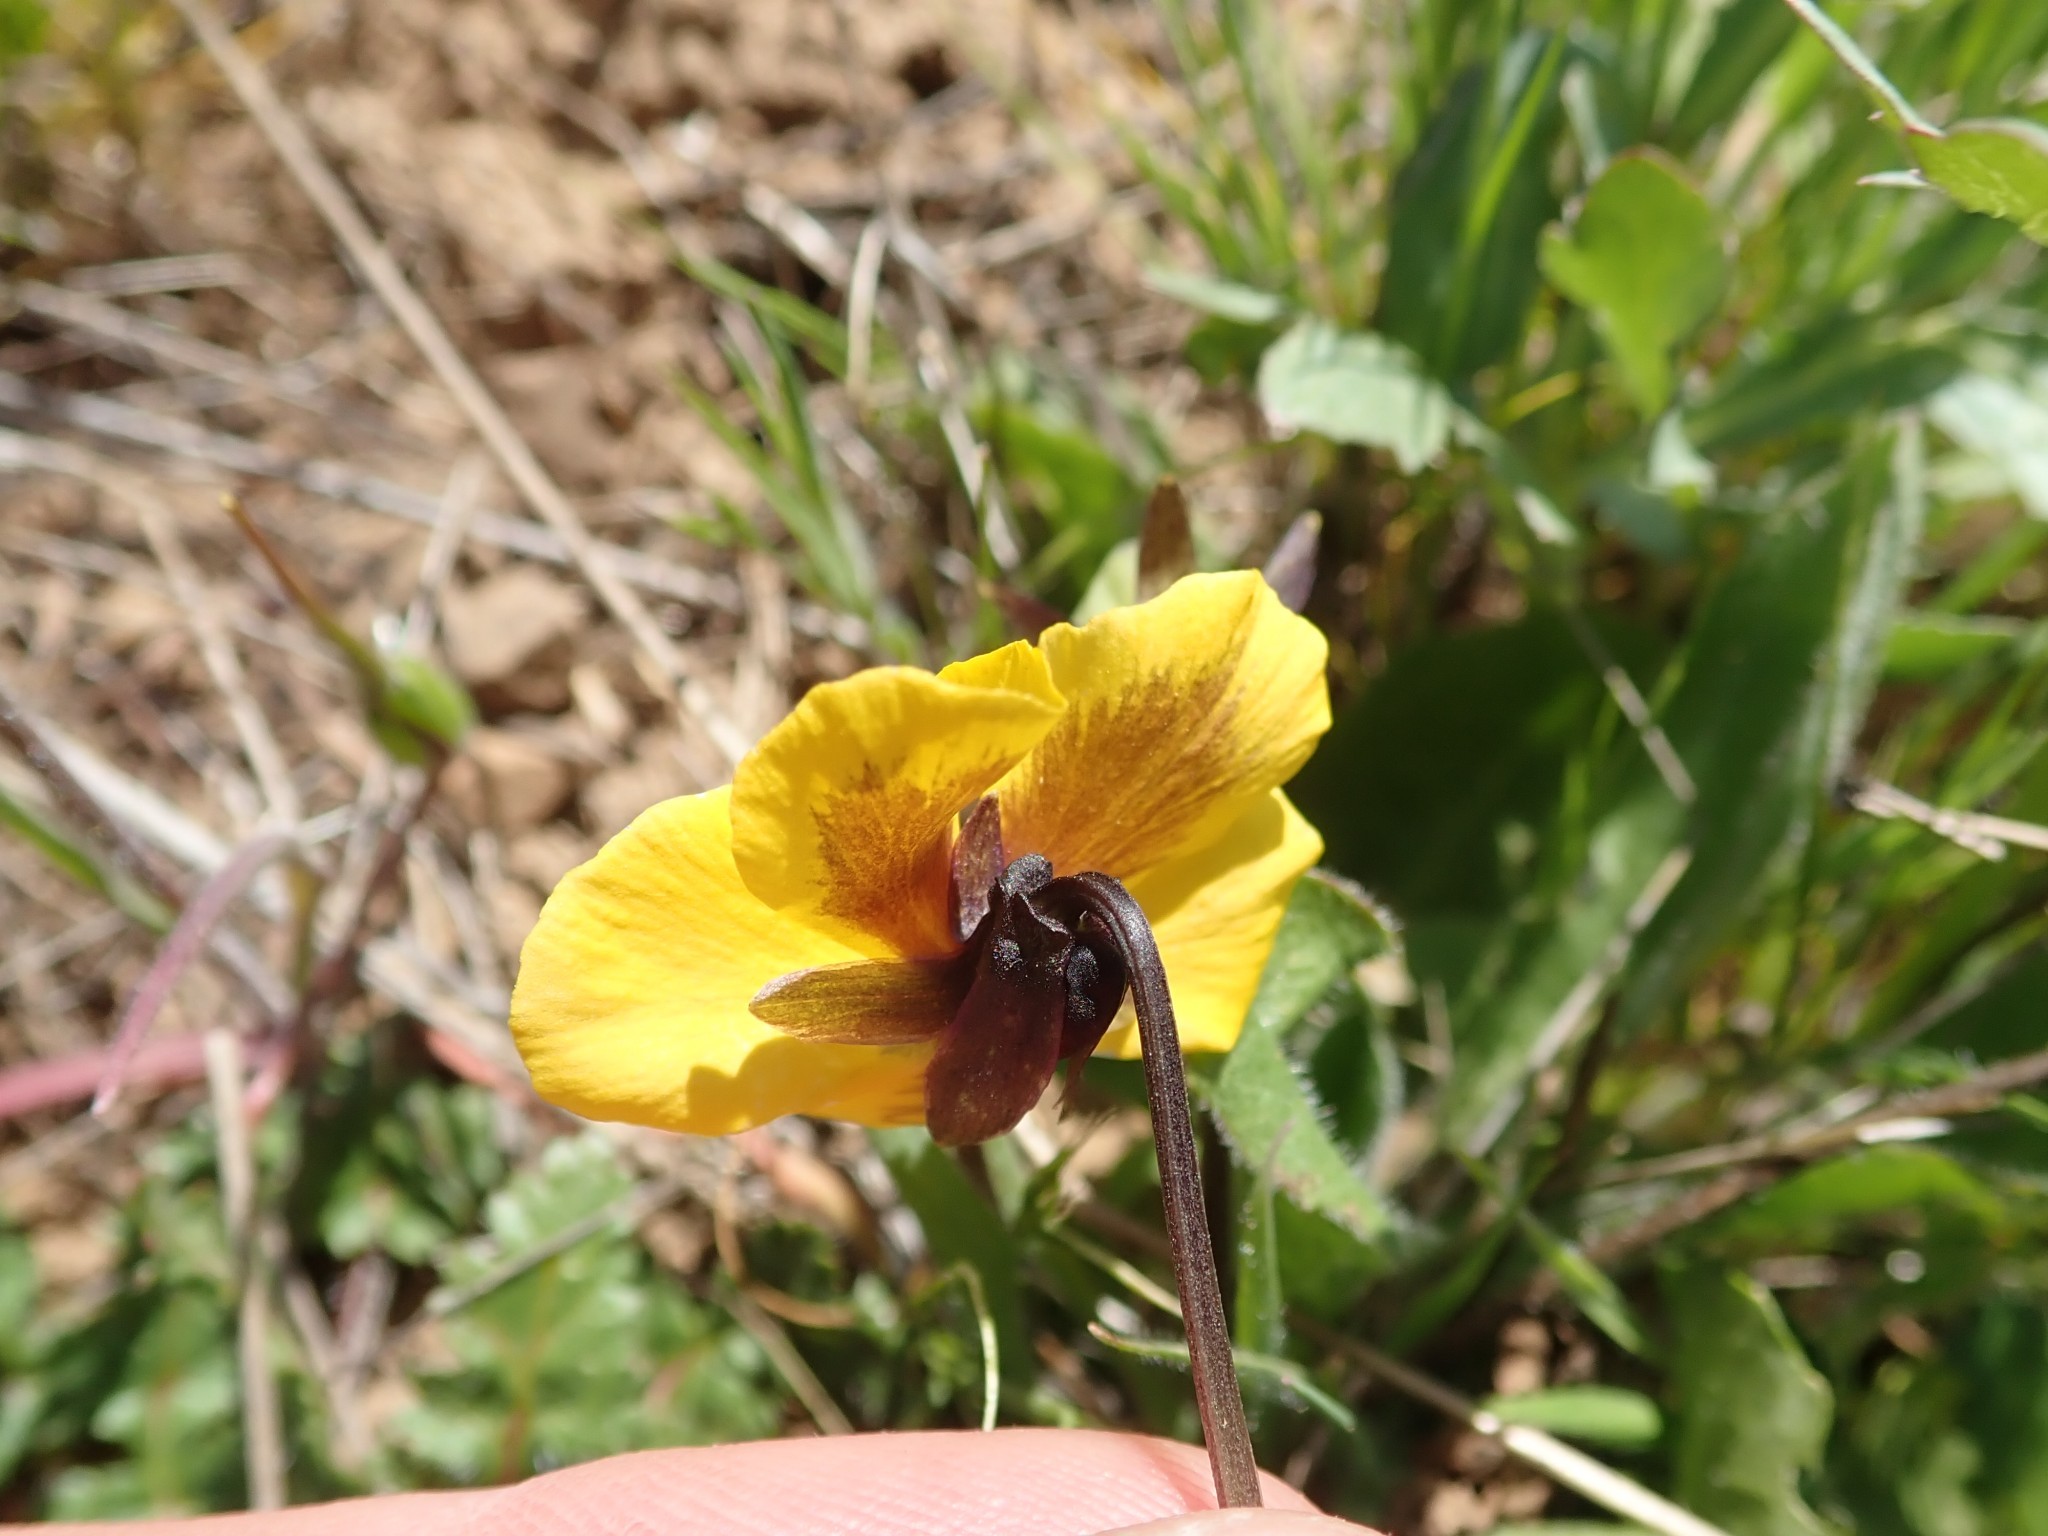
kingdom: Plantae
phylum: Tracheophyta
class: Magnoliopsida
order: Malpighiales
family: Violaceae
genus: Viola
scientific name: Viola pedunculata
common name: California golden violet
